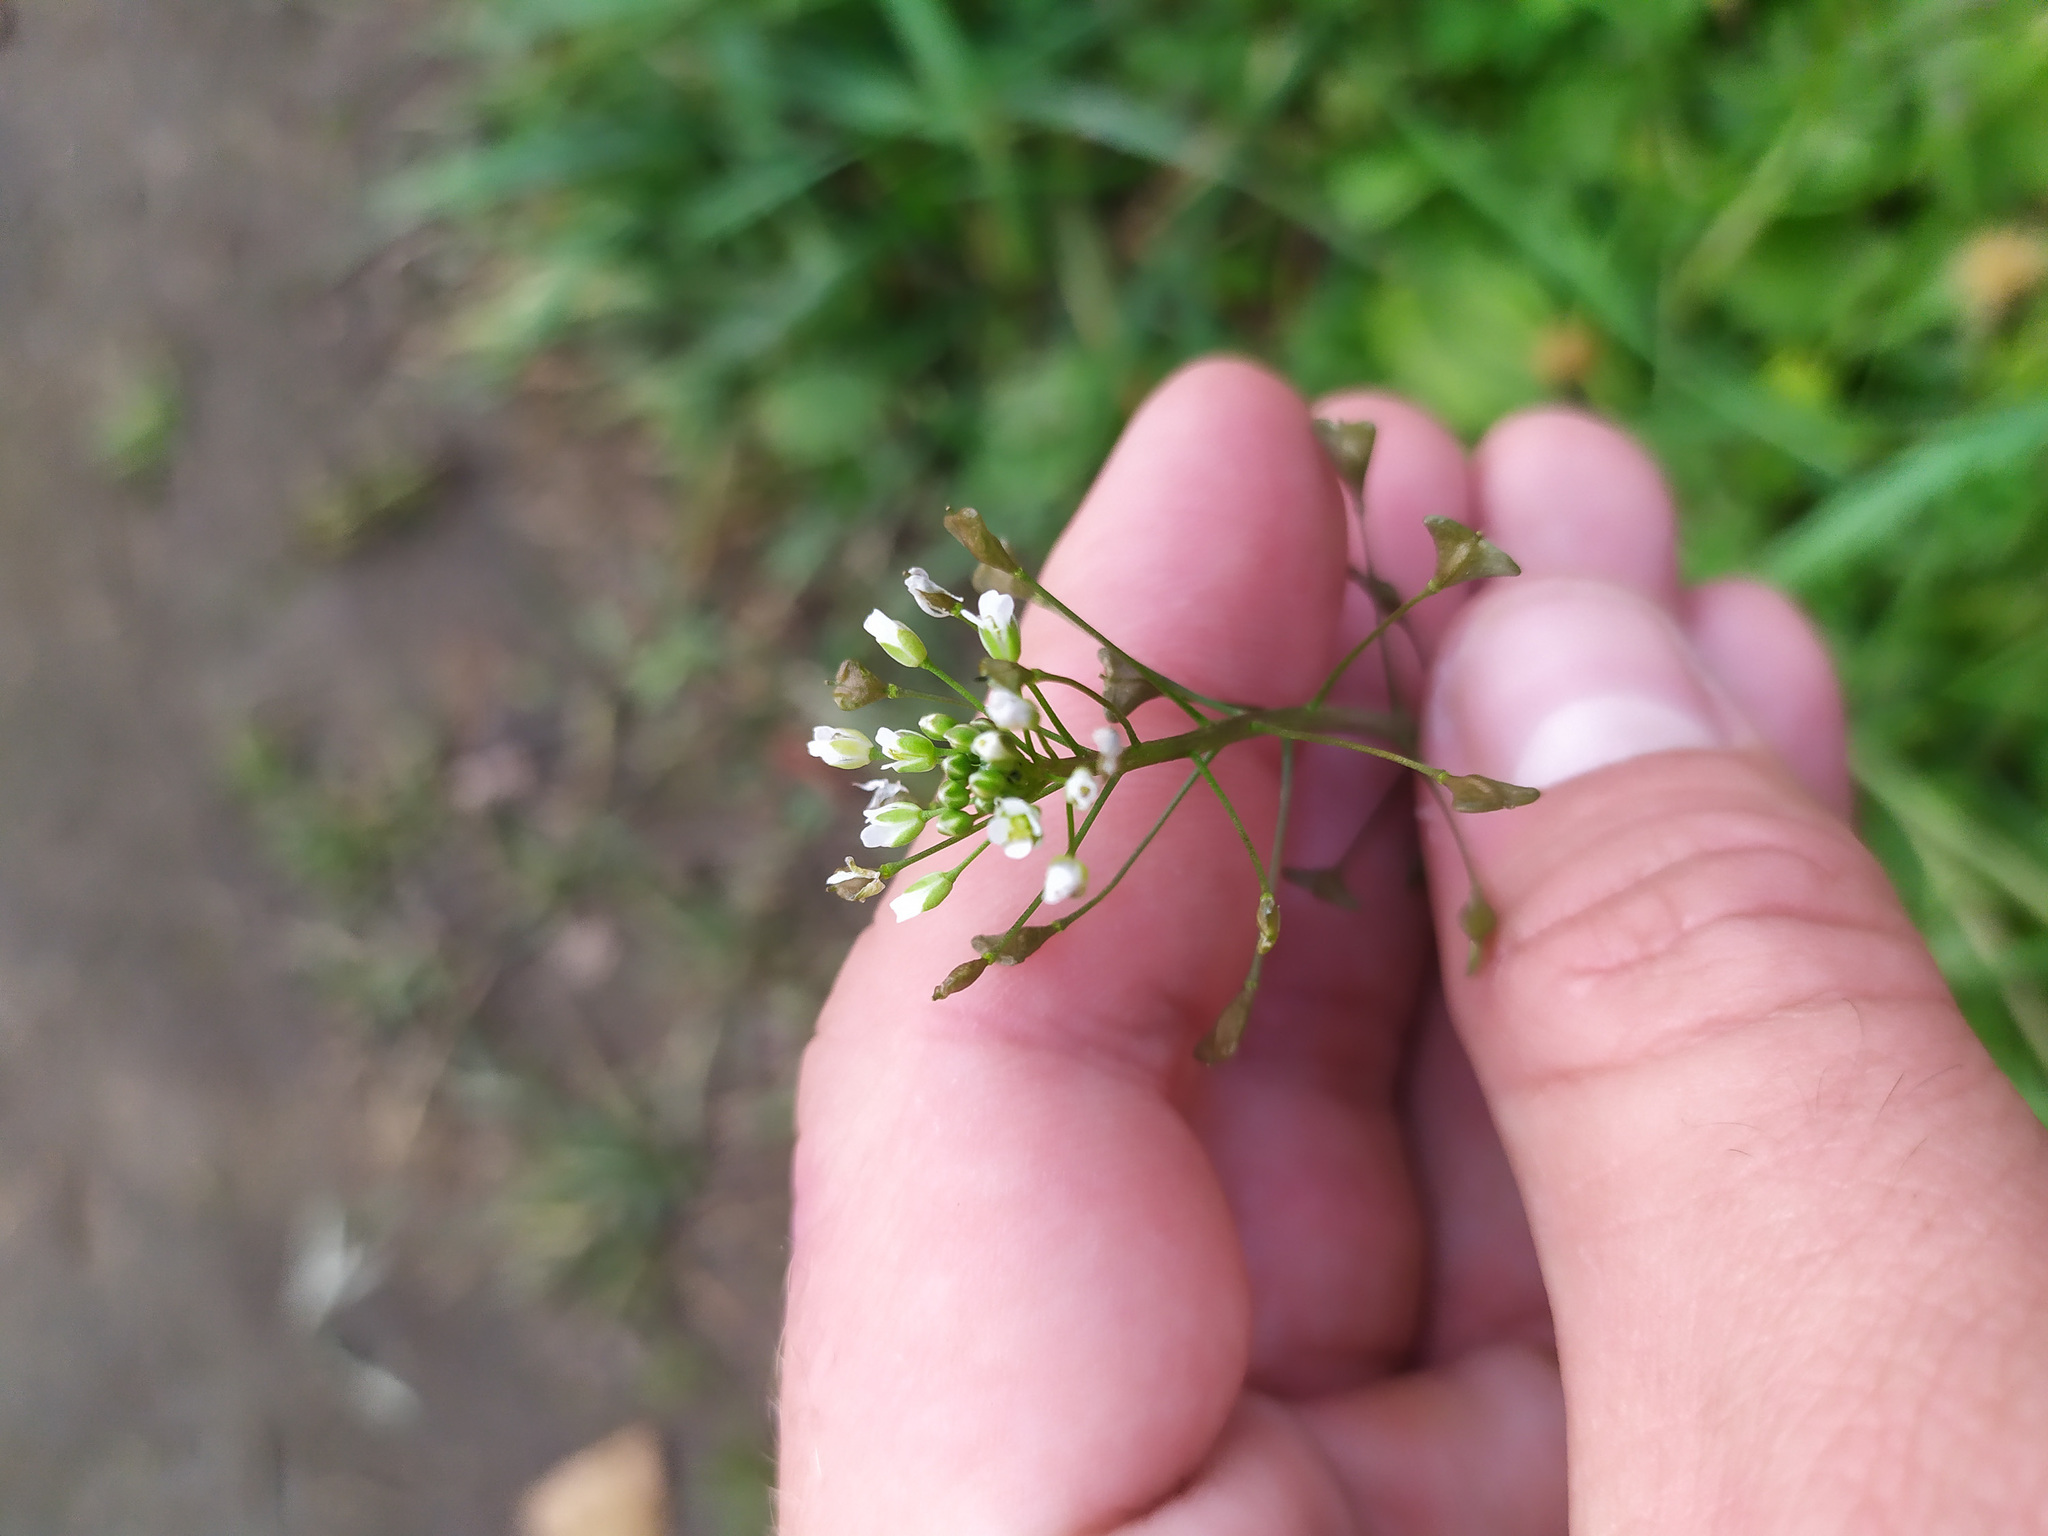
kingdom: Plantae
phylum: Tracheophyta
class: Magnoliopsida
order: Brassicales
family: Brassicaceae
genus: Capsella
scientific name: Capsella bursa-pastoris
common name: Shepherd's purse
